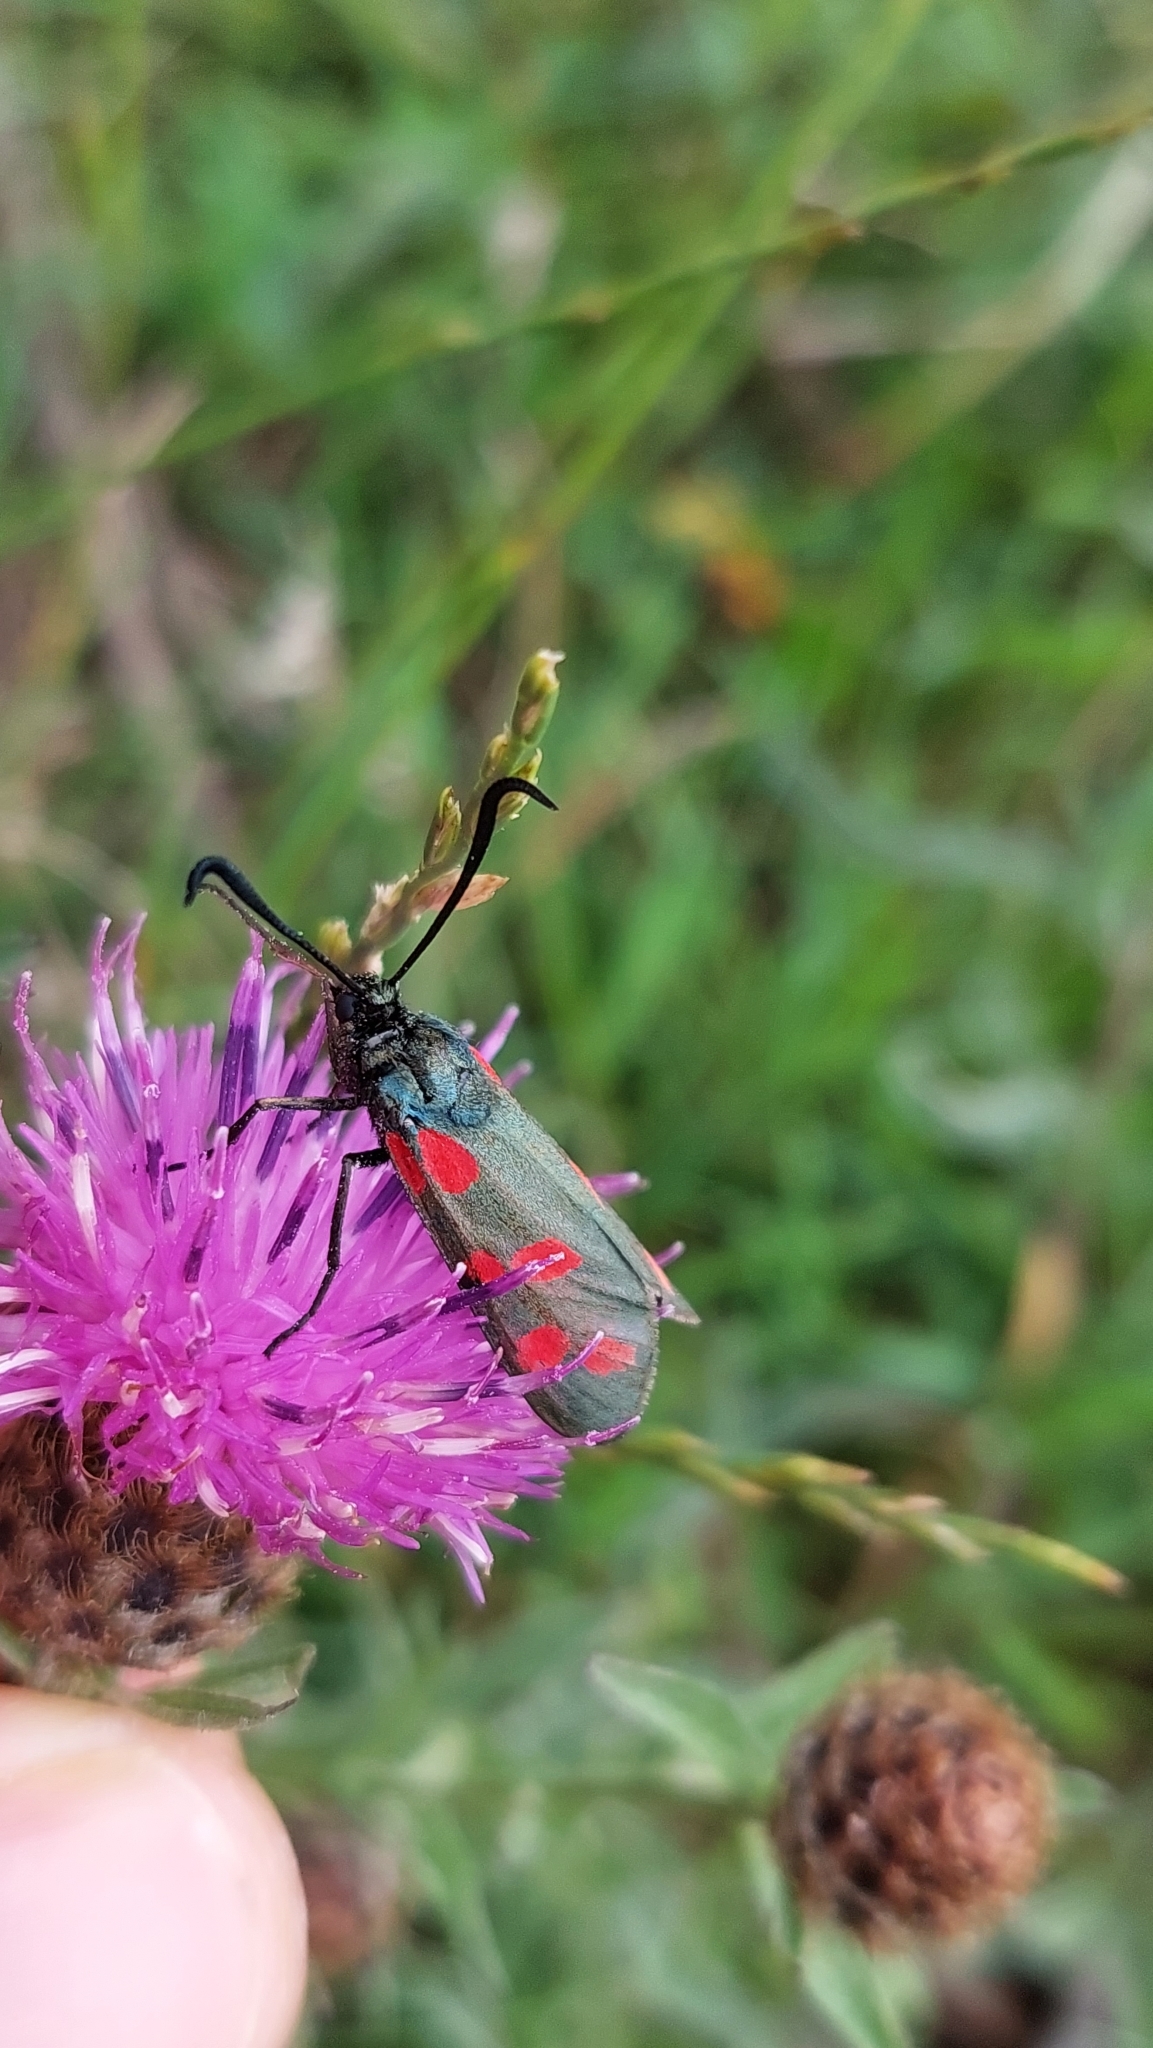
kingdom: Animalia
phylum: Arthropoda
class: Insecta
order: Lepidoptera
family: Zygaenidae
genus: Zygaena
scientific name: Zygaena filipendulae
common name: Six-spot burnet
